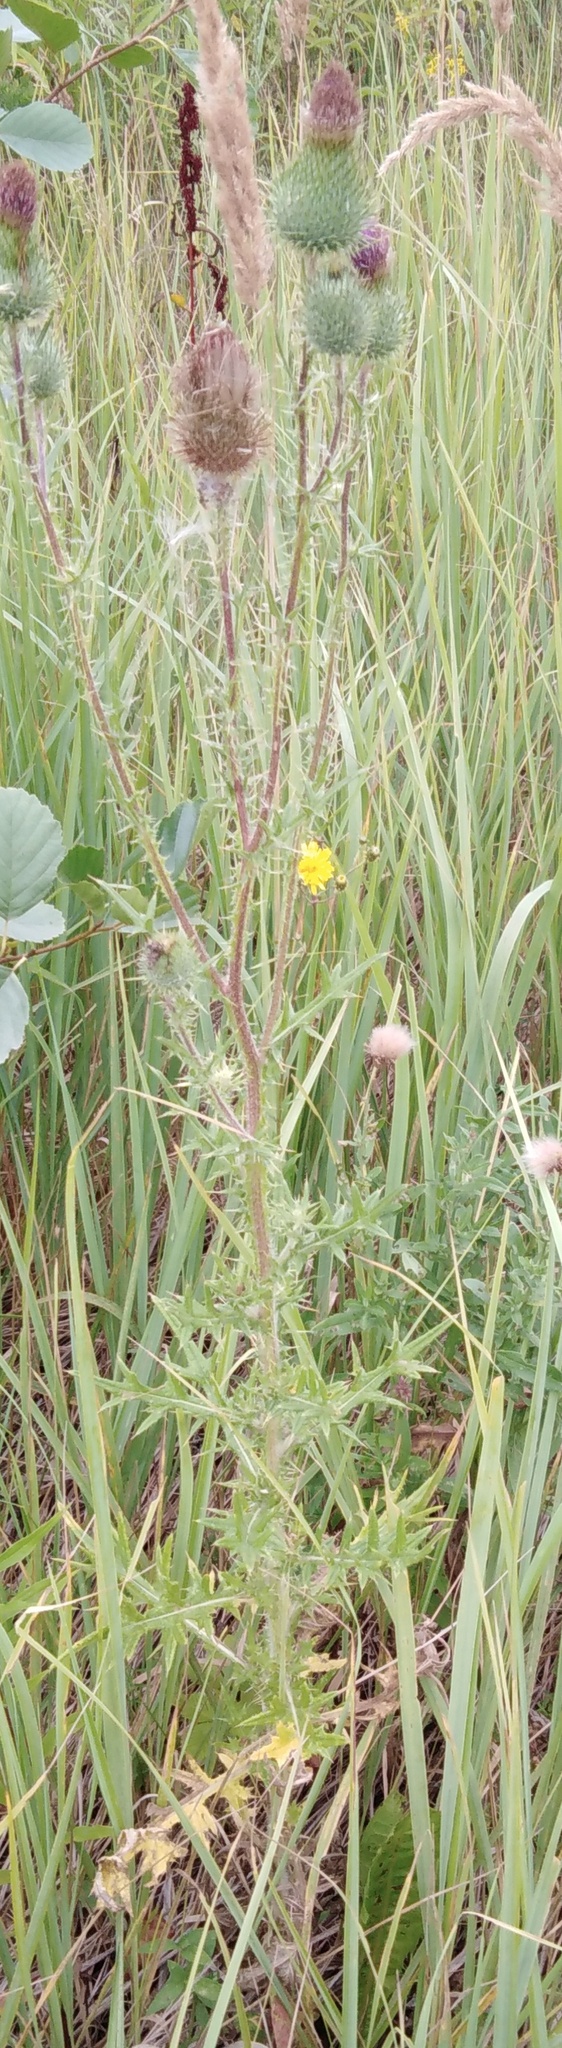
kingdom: Plantae
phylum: Tracheophyta
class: Magnoliopsida
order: Asterales
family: Asteraceae
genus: Cirsium
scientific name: Cirsium vulgare
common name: Bull thistle
